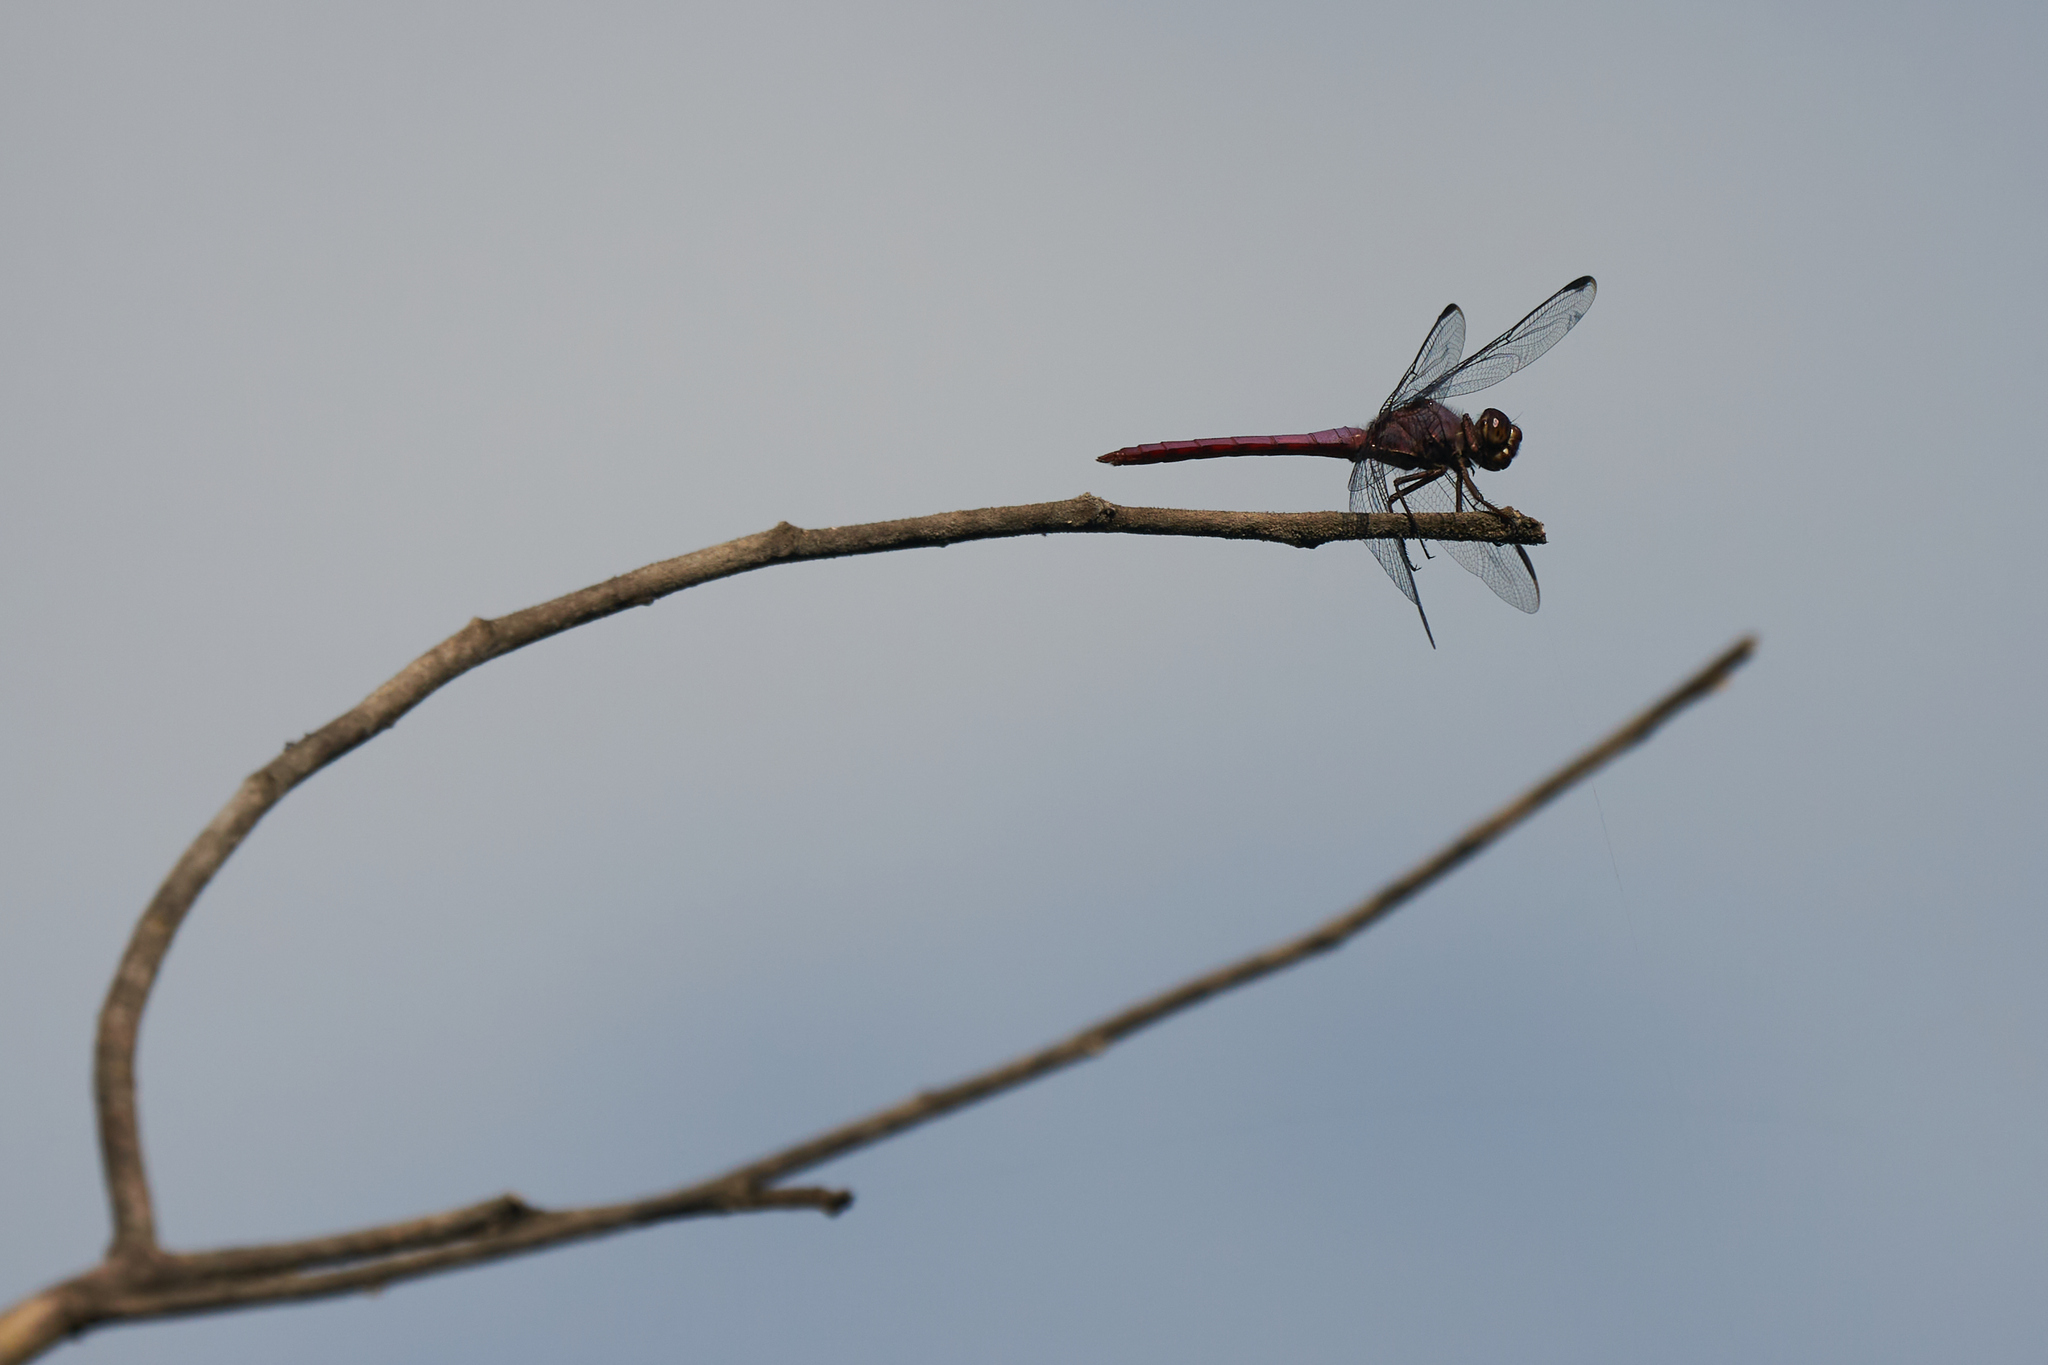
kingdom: Animalia
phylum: Arthropoda
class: Insecta
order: Odonata
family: Libellulidae
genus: Orthemis
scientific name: Orthemis ferruginea
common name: Roseate skimmer
